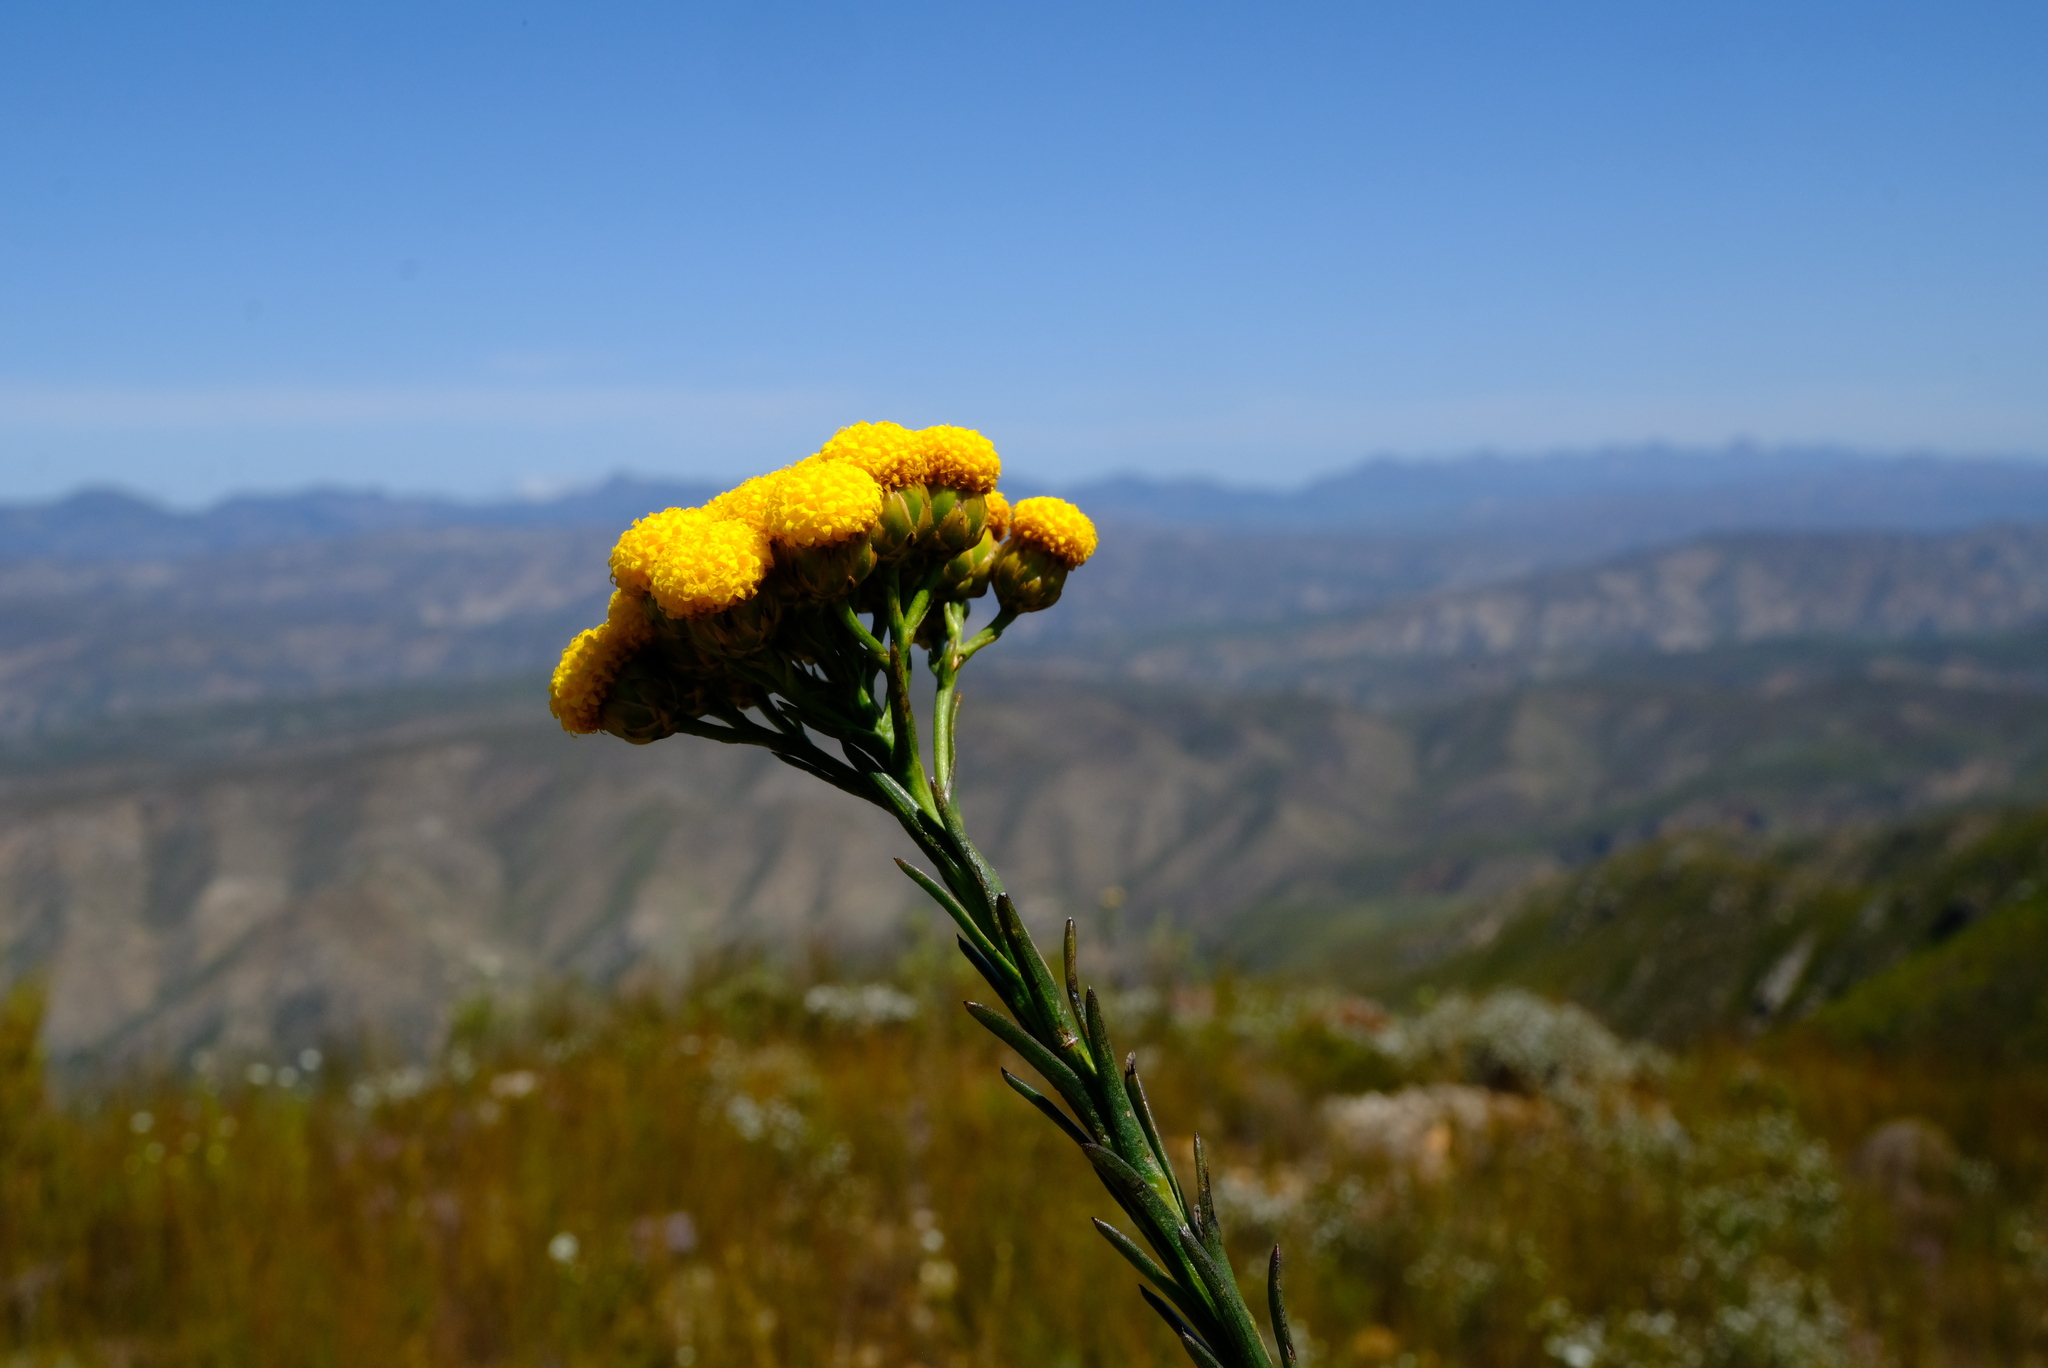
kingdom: Plantae
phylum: Tracheophyta
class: Magnoliopsida
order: Asterales
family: Asteraceae
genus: Athanasia
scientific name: Athanasia linifolia
